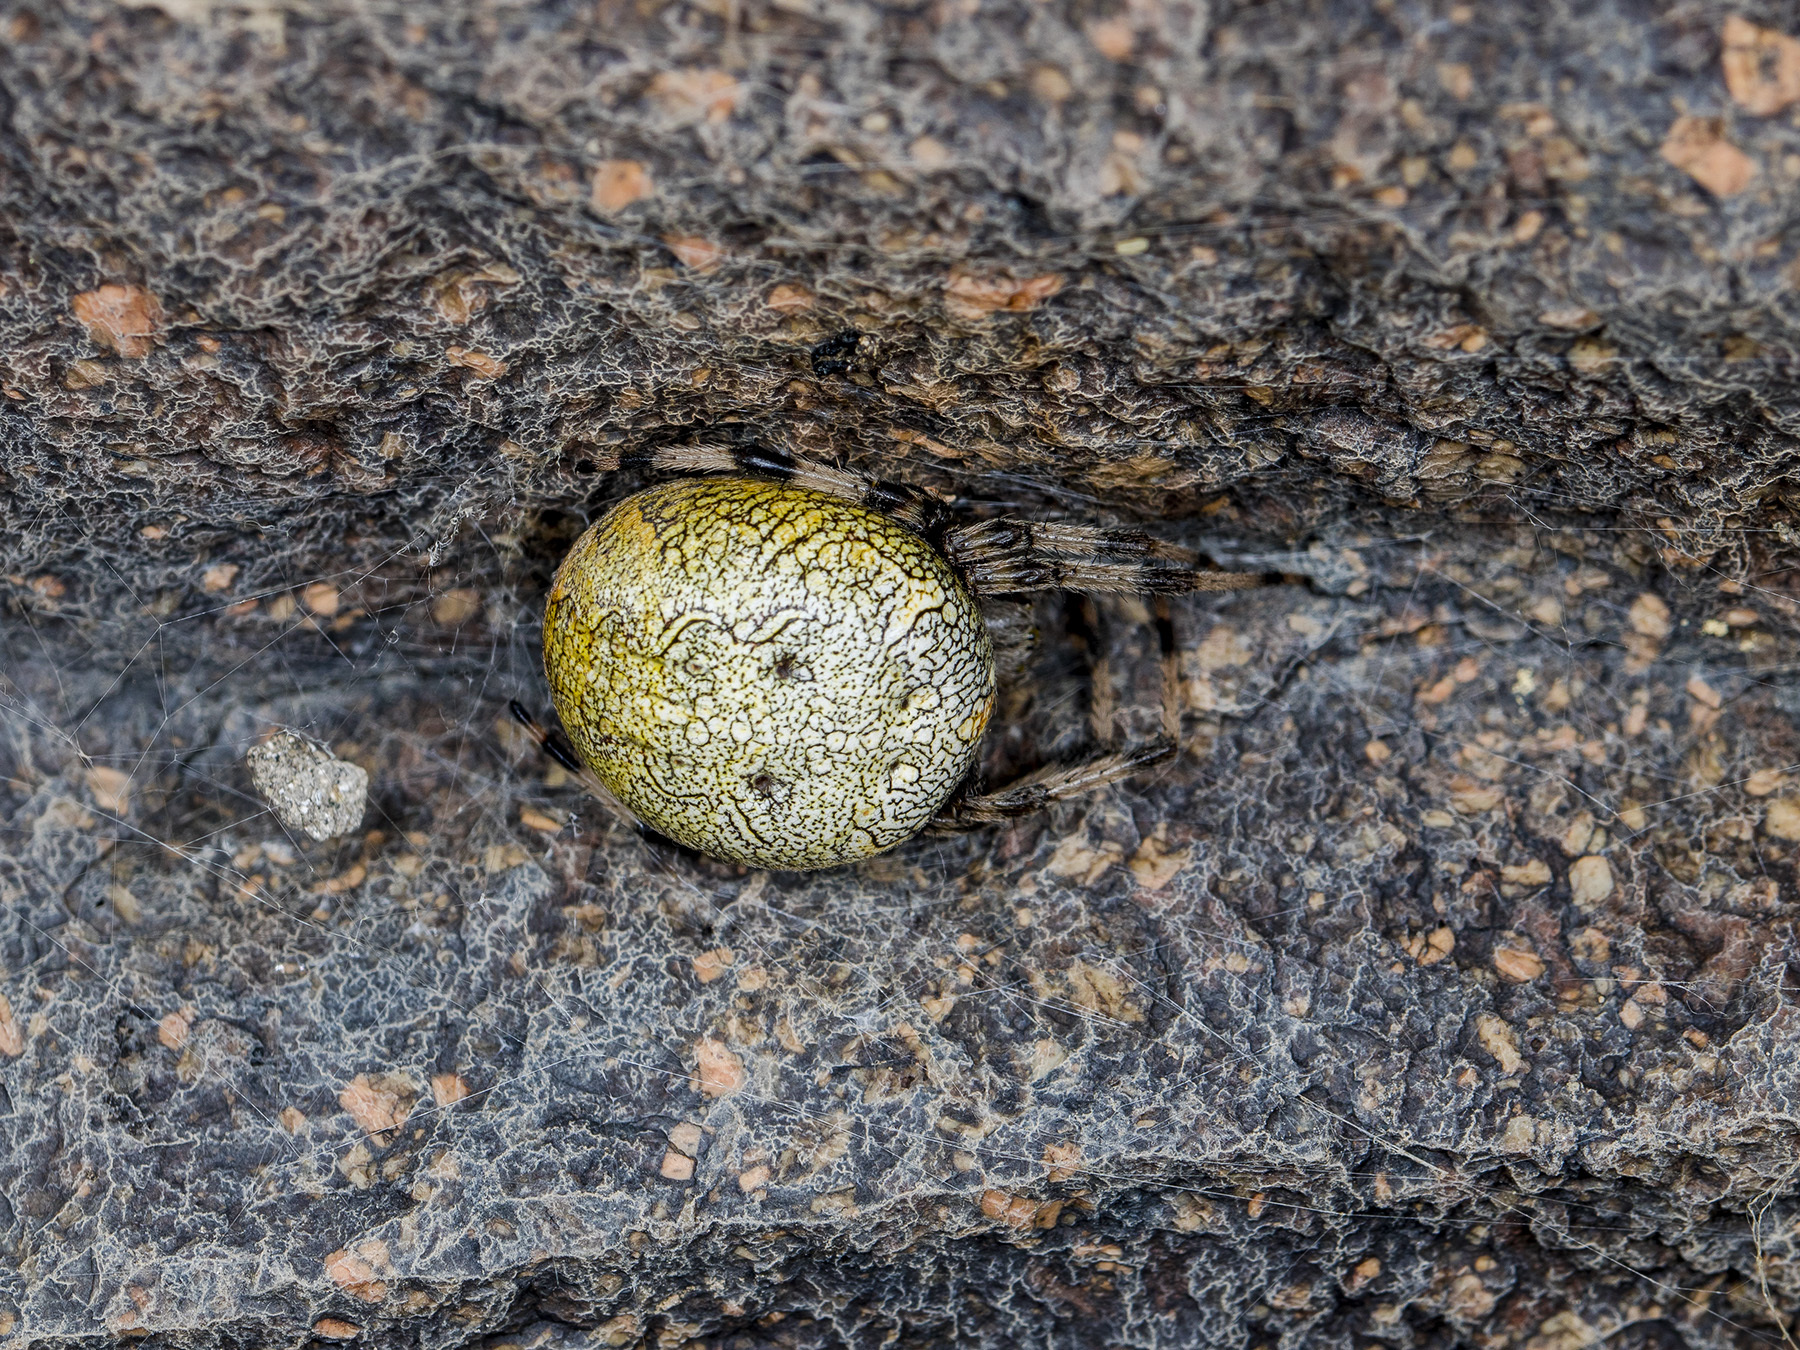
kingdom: Animalia
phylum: Arthropoda
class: Arachnida
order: Araneae
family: Araneidae
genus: Araneus
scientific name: Araneus marmoreus
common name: Marbled orbweaver
